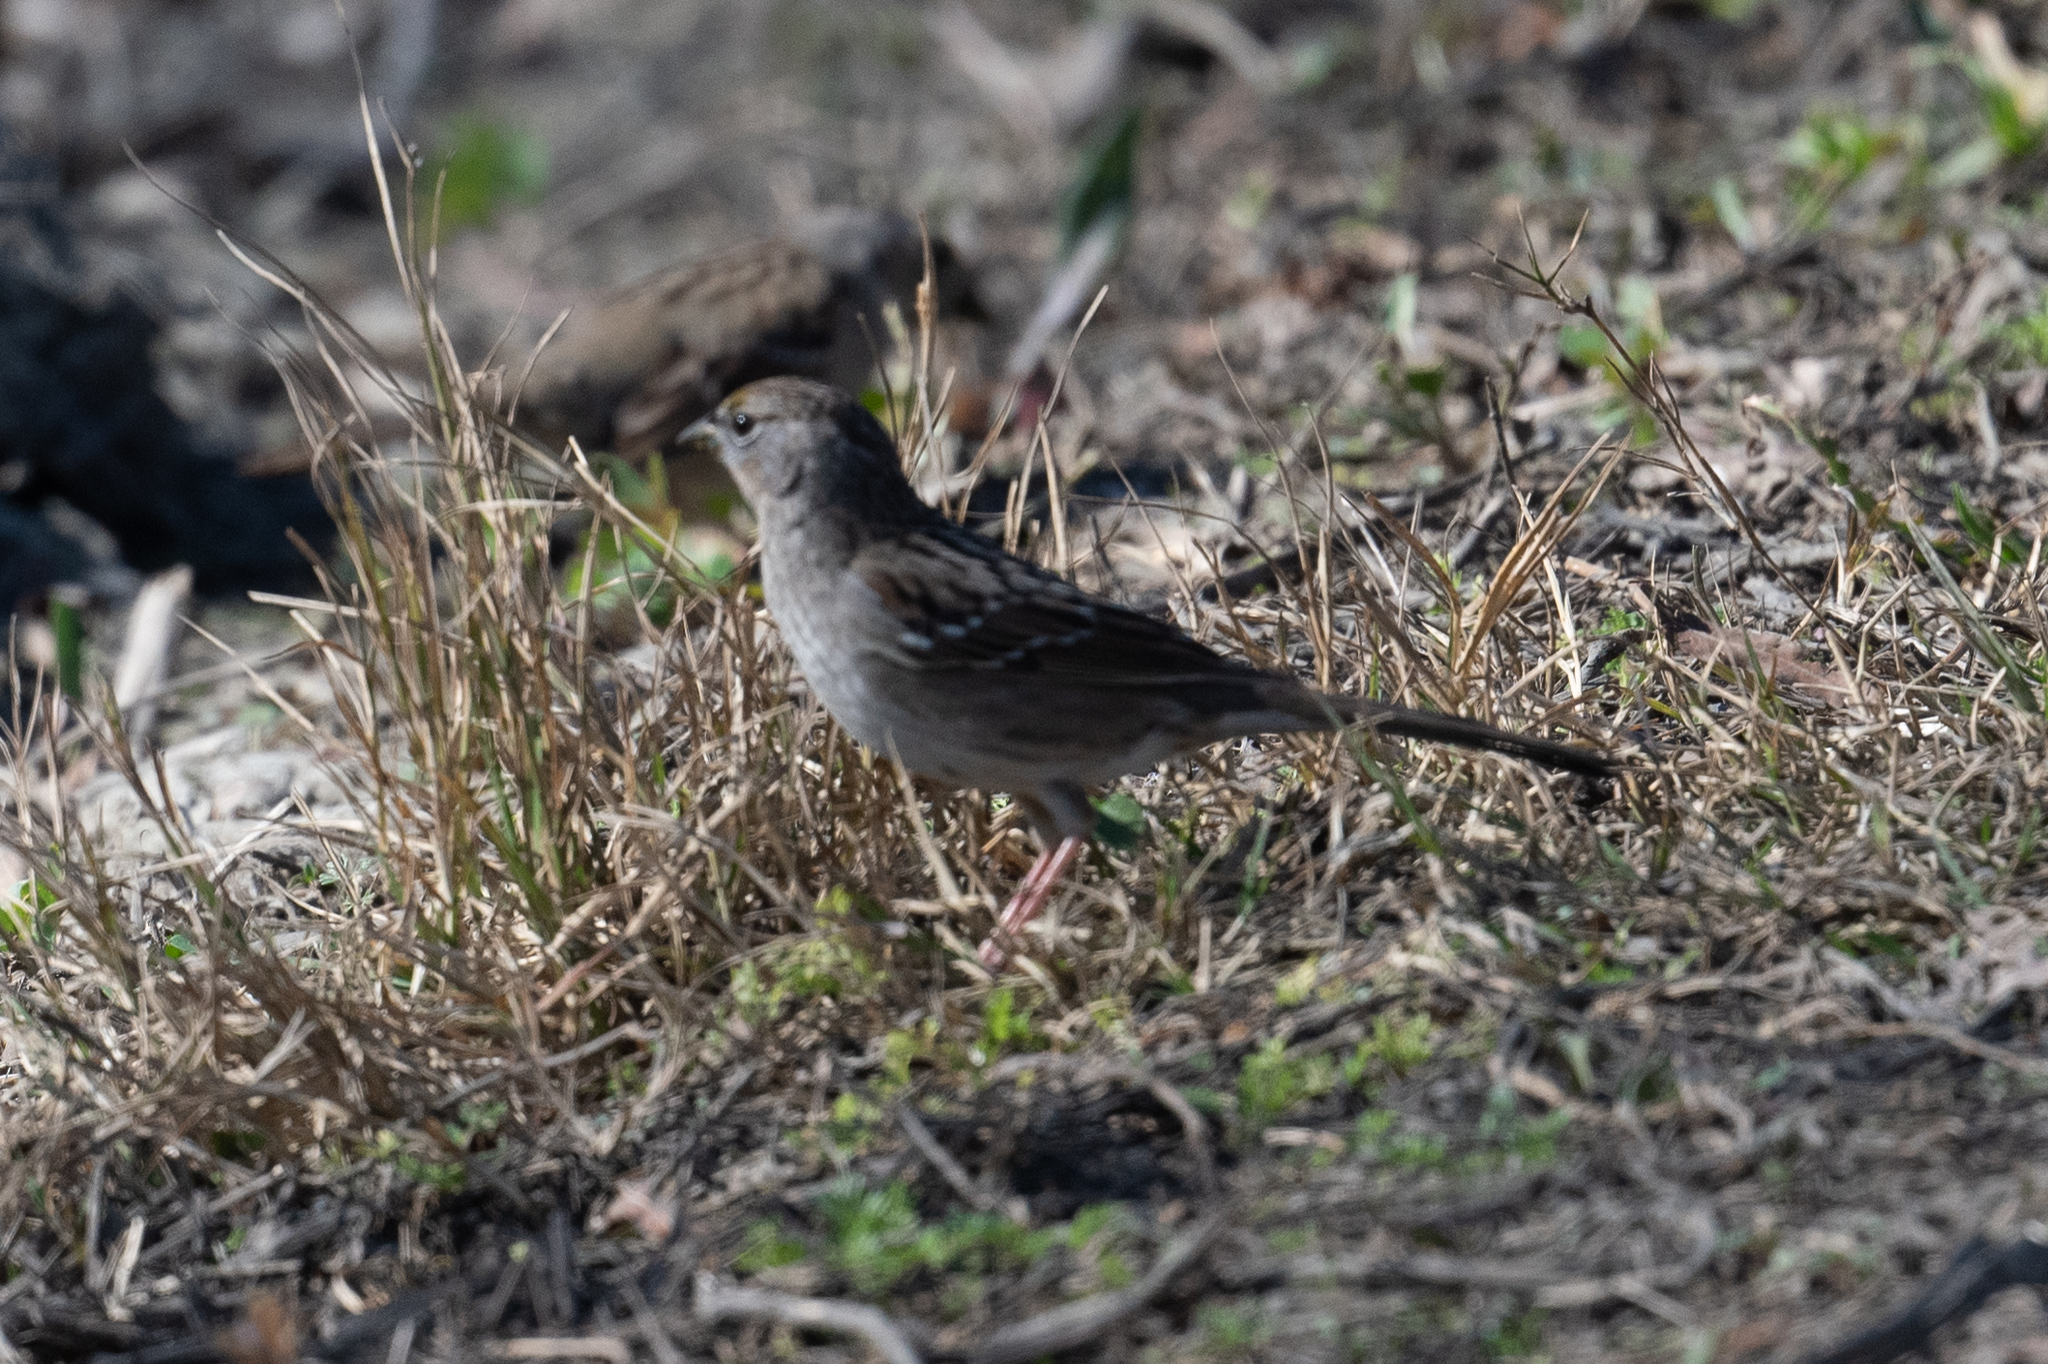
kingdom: Animalia
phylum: Chordata
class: Aves
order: Passeriformes
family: Passerellidae
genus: Zonotrichia
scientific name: Zonotrichia atricapilla
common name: Golden-crowned sparrow
